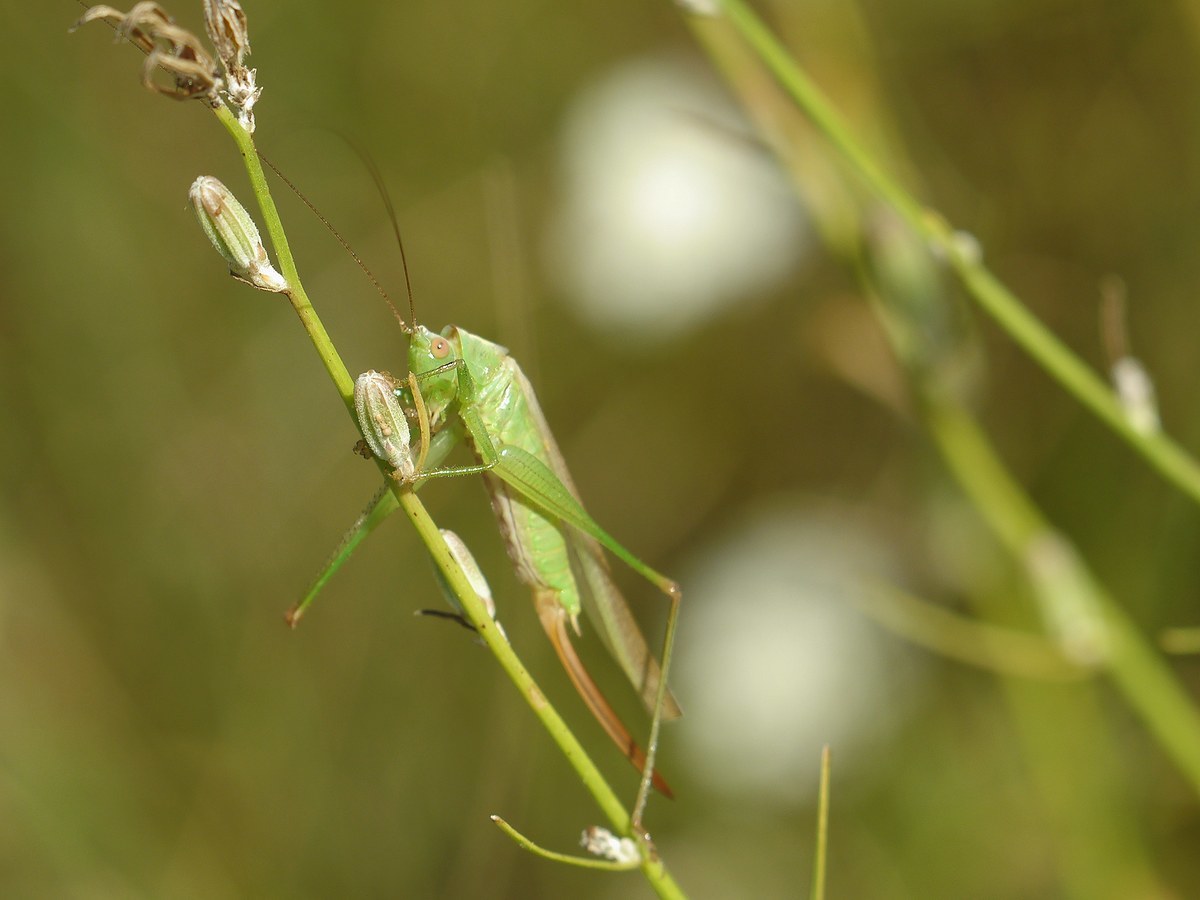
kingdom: Animalia
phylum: Arthropoda
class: Insecta
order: Orthoptera
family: Tettigoniidae
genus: Conocephalus
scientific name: Conocephalus fuscus
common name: Long-winged conehead
